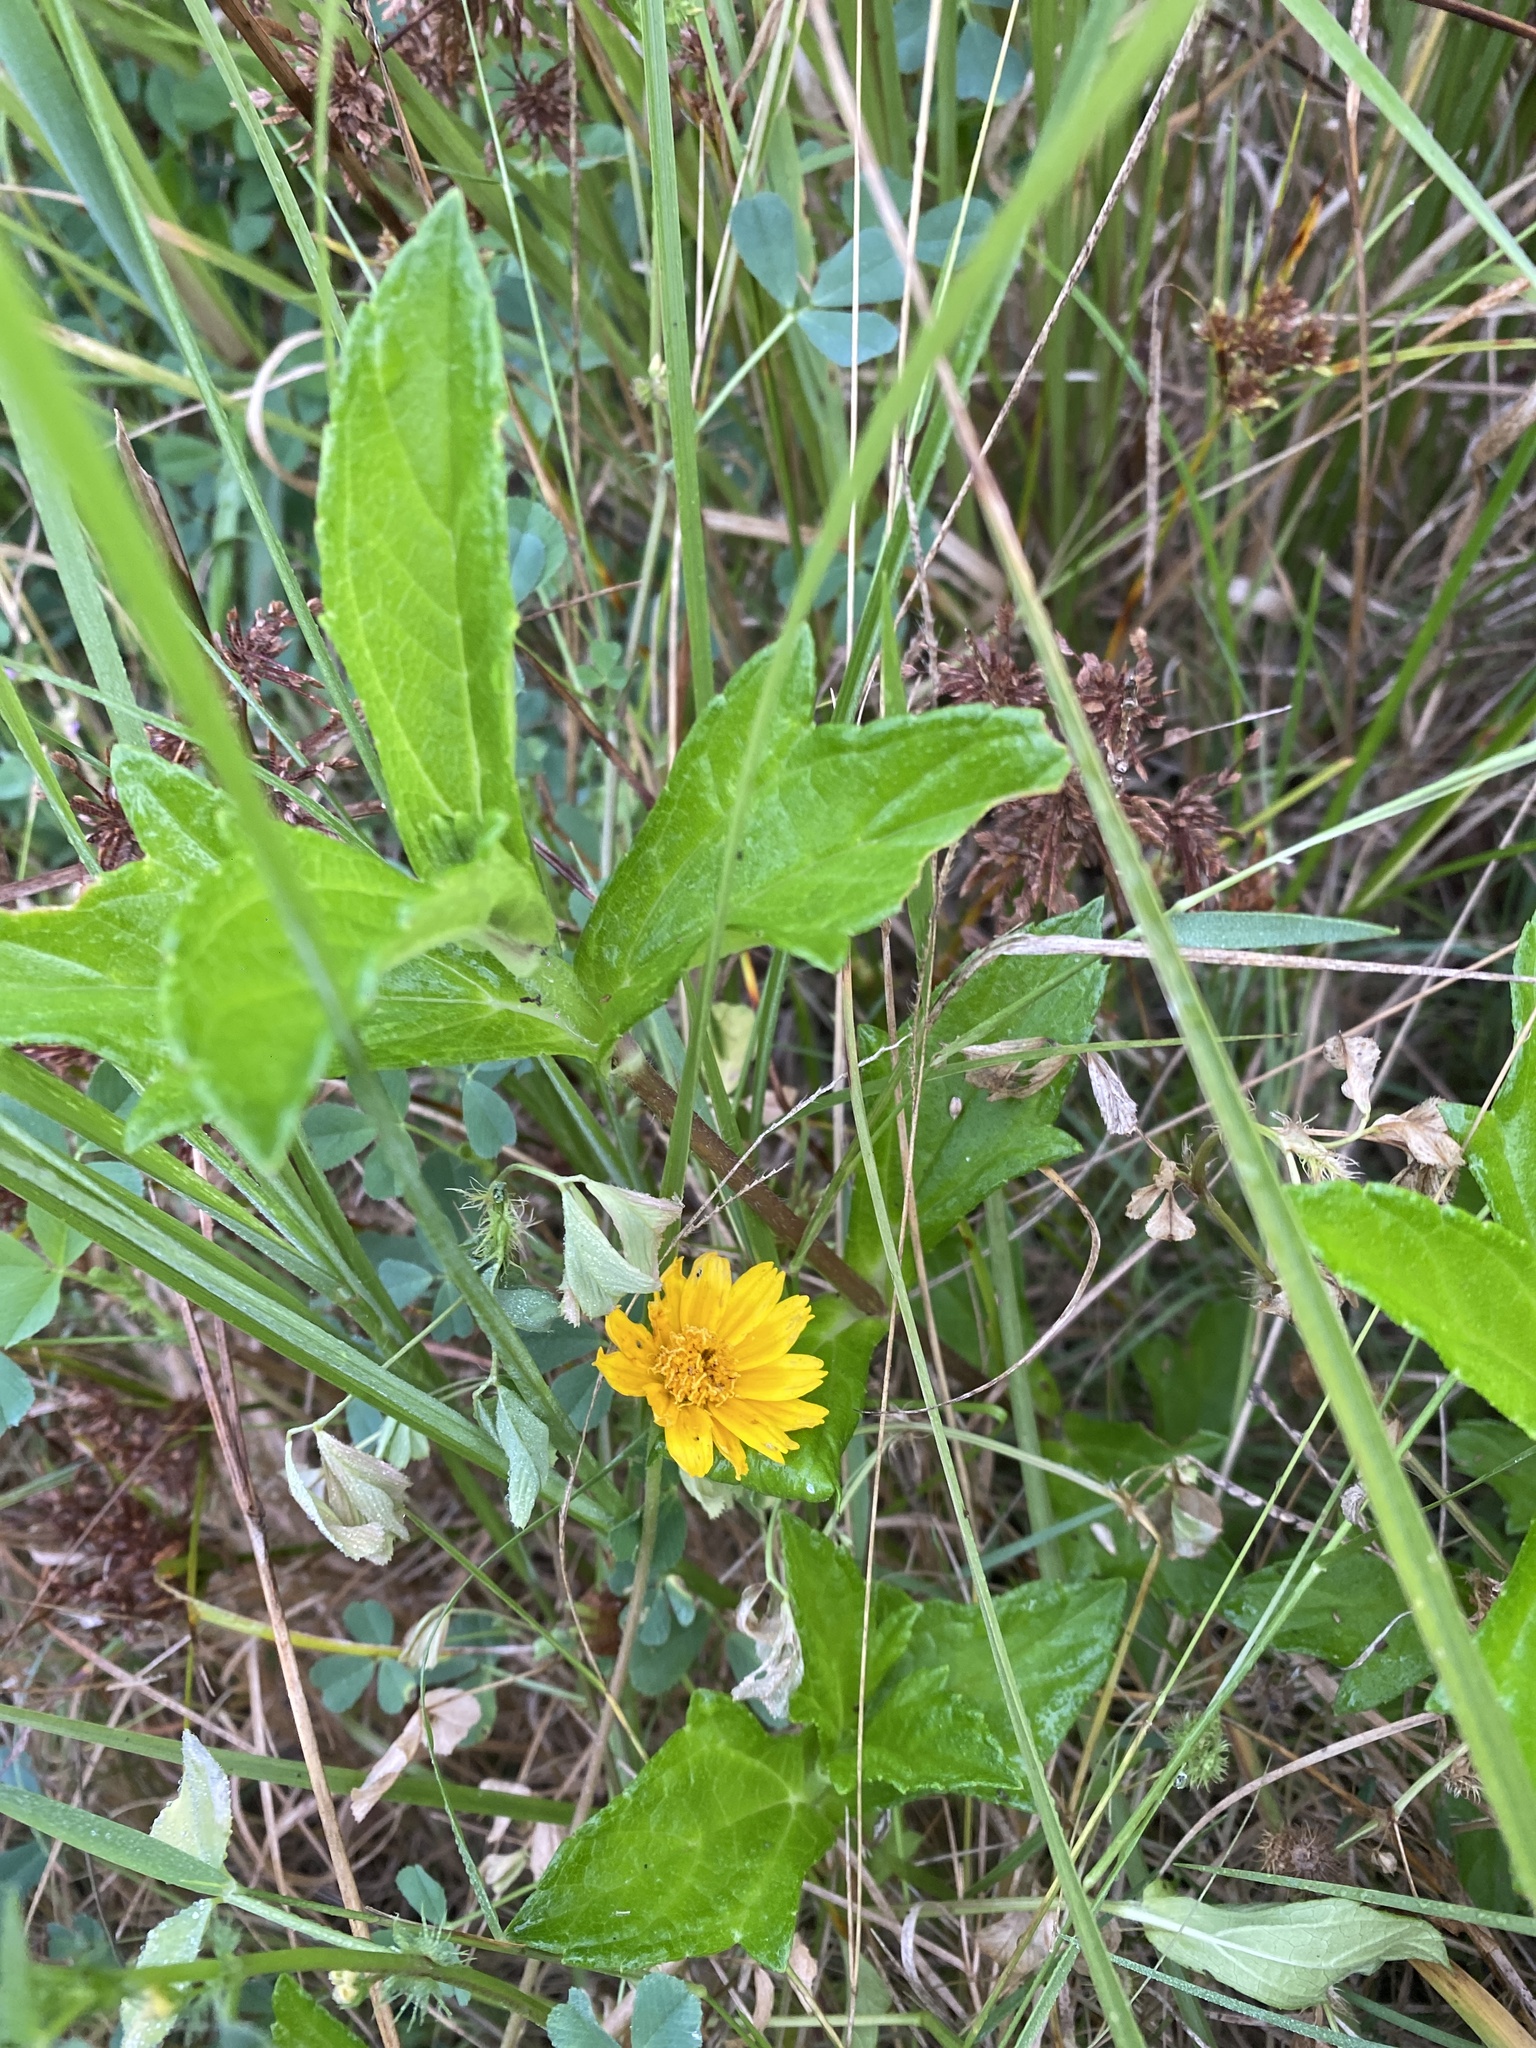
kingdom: Plantae
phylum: Tracheophyta
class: Magnoliopsida
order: Asterales
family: Asteraceae
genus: Sphagneticola
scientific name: Sphagneticola trilobata
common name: Bay biscayne creeping-oxeye
